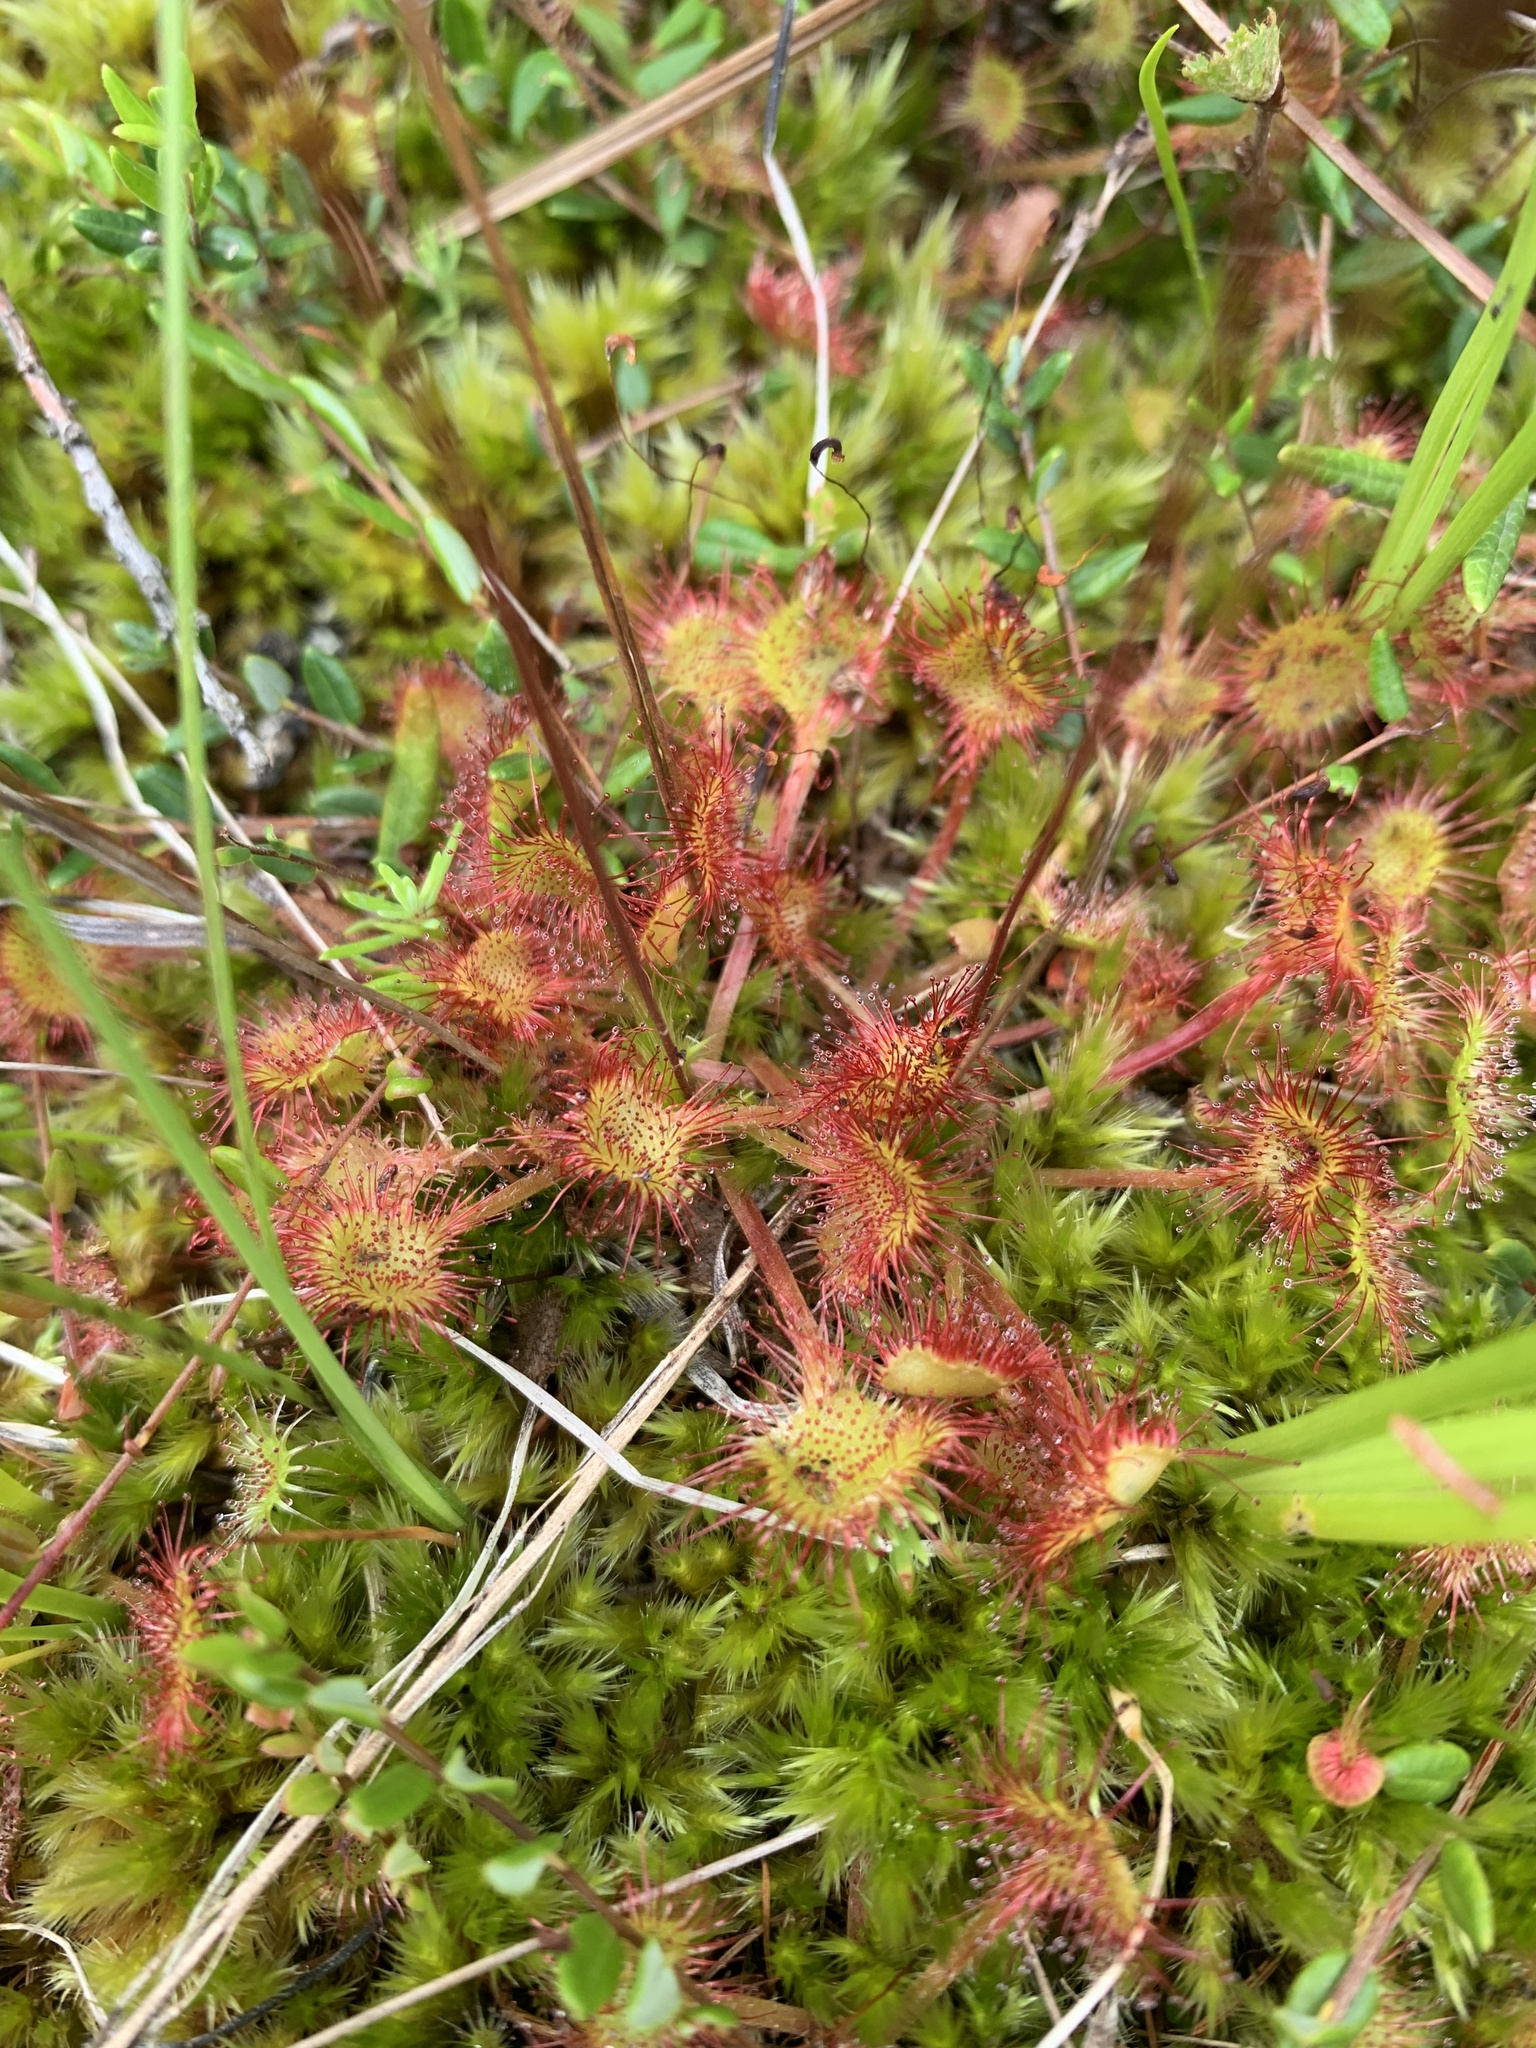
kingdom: Plantae
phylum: Tracheophyta
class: Magnoliopsida
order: Caryophyllales
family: Droseraceae
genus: Drosera
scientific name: Drosera rotundifolia
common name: Round-leaved sundew
